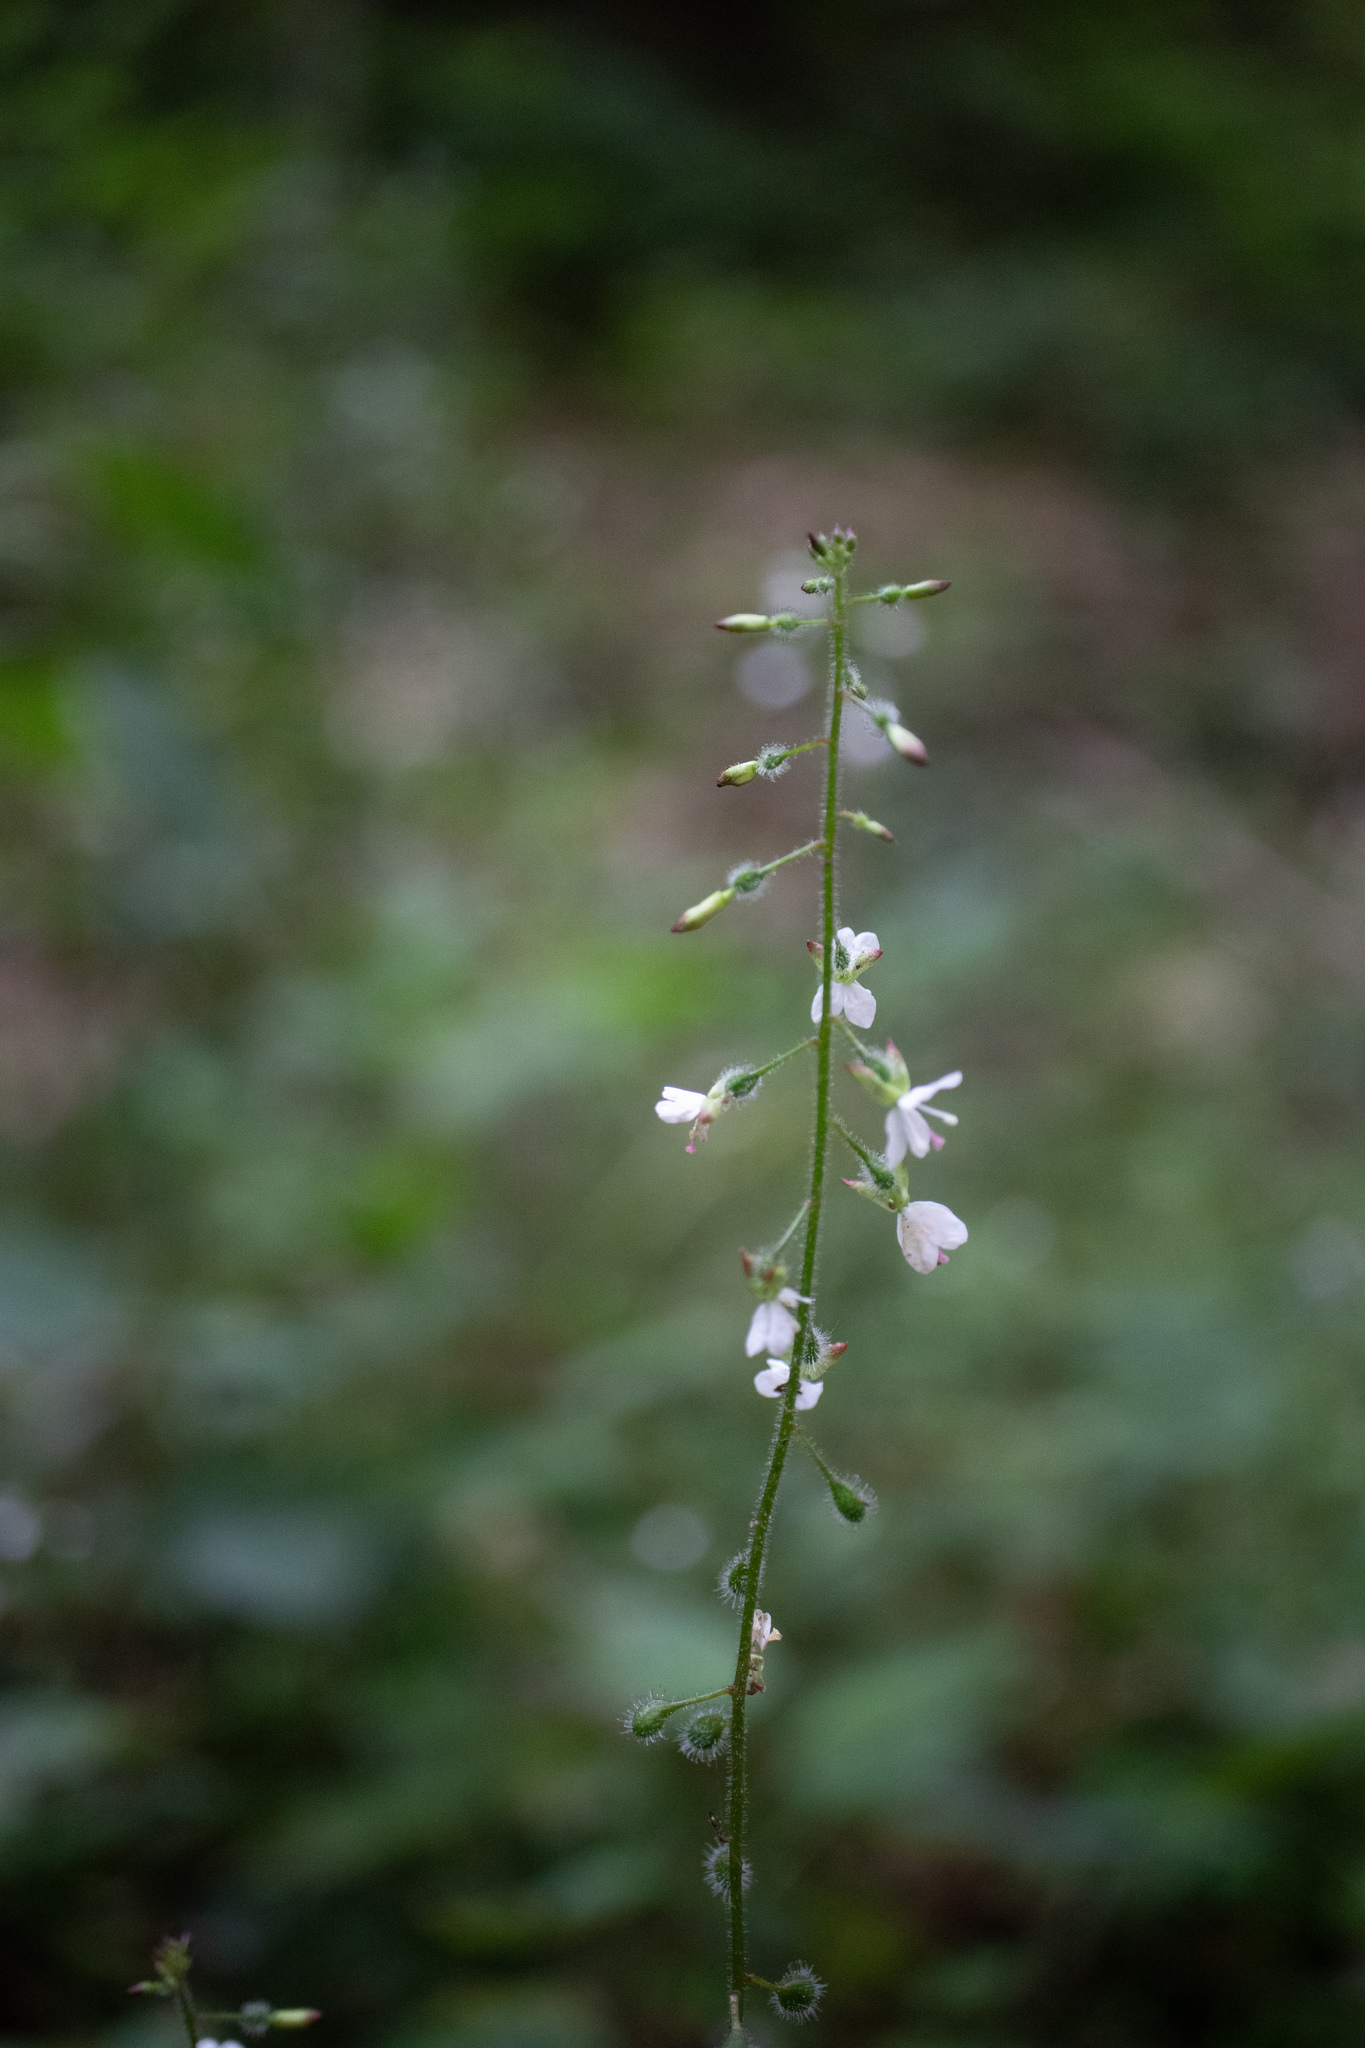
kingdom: Plantae
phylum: Tracheophyta
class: Magnoliopsida
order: Myrtales
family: Onagraceae
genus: Circaea
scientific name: Circaea lutetiana
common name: Enchanter's-nightshade
